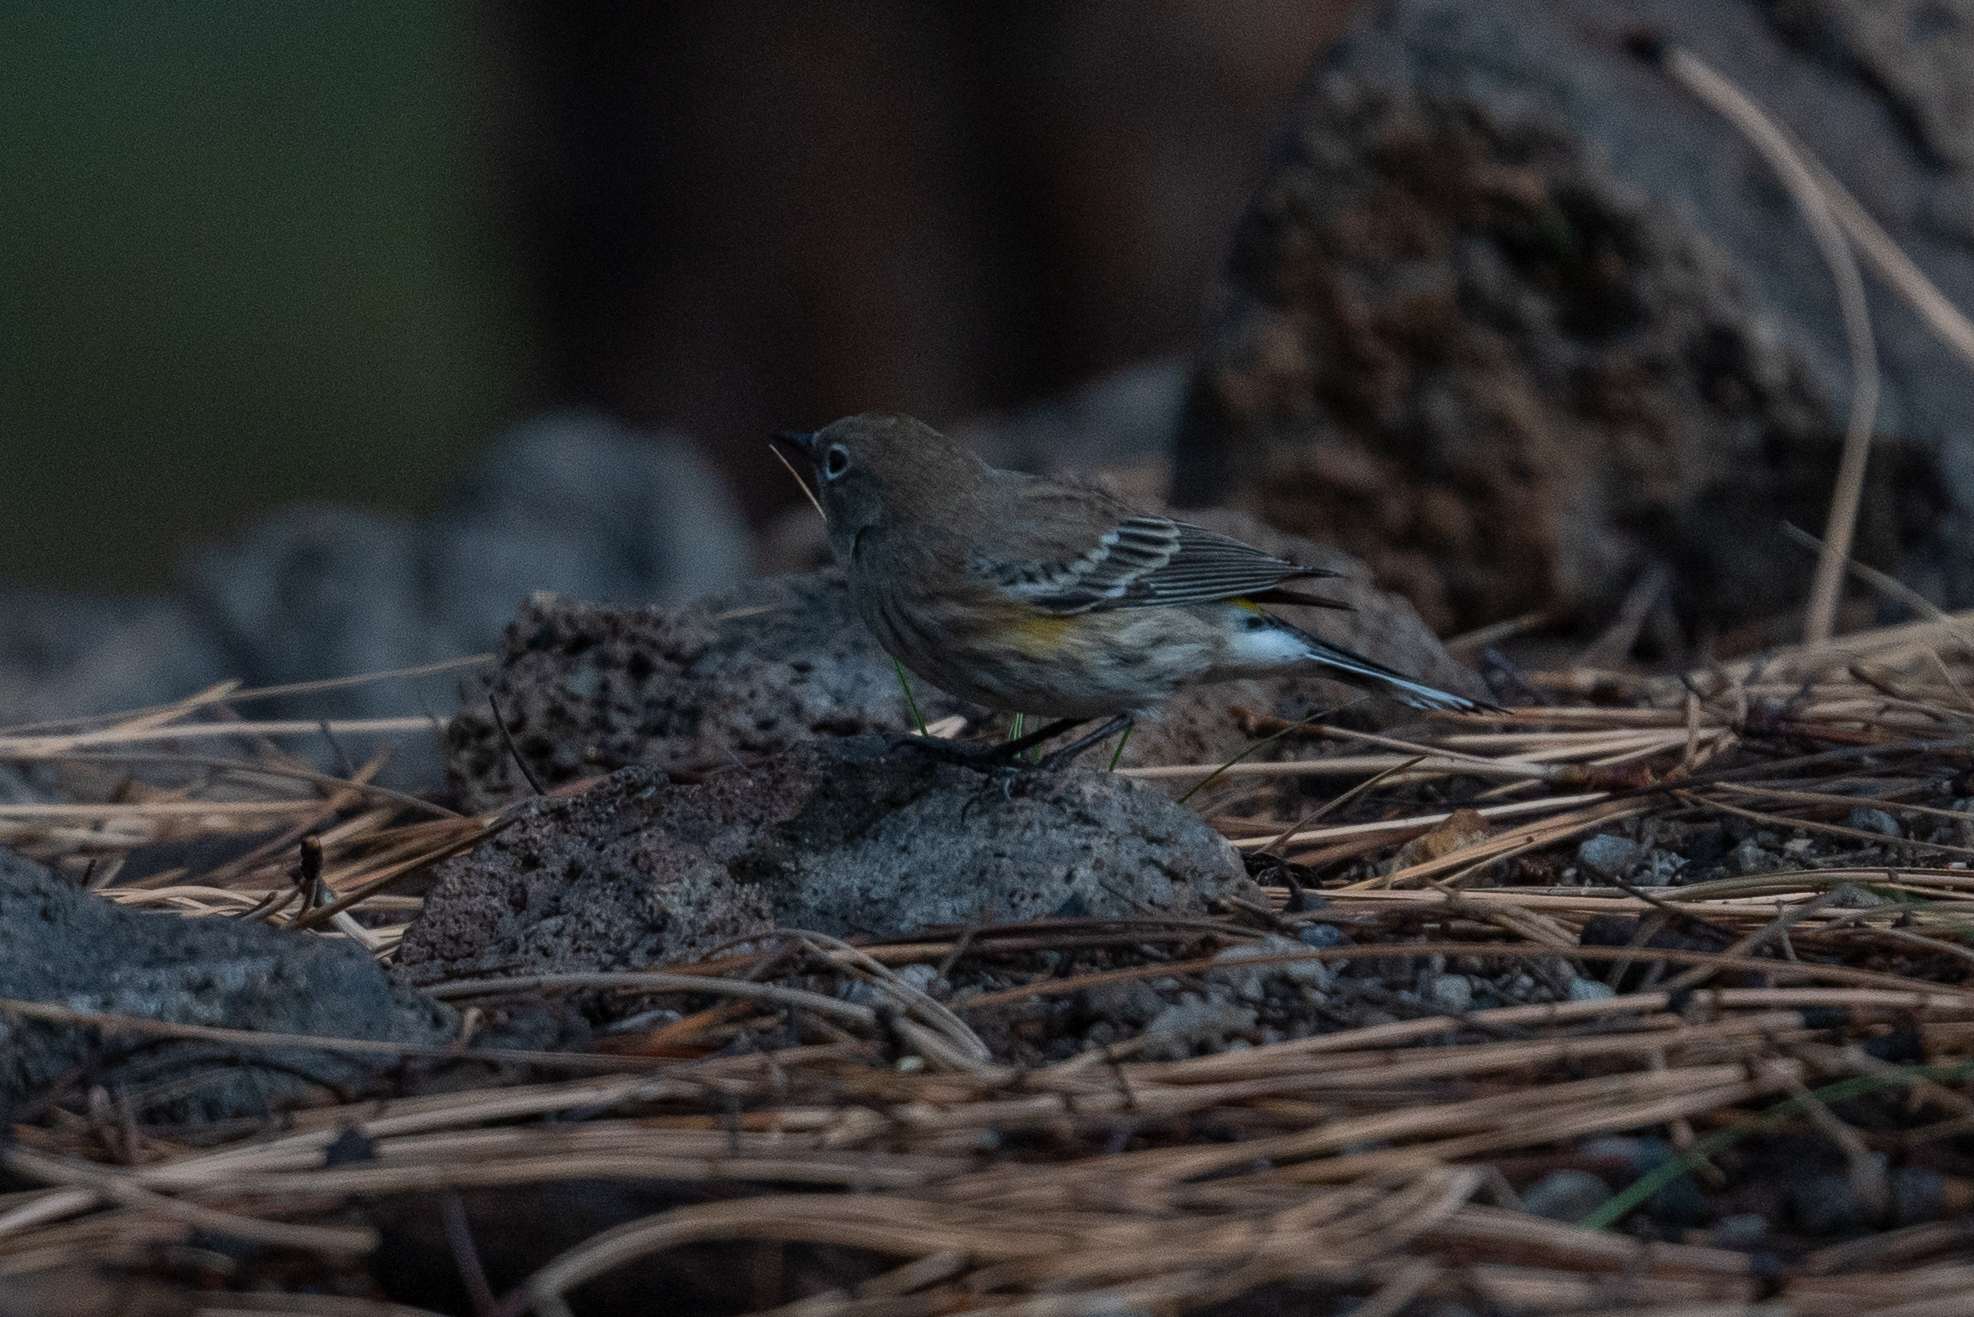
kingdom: Animalia
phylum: Chordata
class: Aves
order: Passeriformes
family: Parulidae
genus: Setophaga
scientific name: Setophaga coronata
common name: Myrtle warbler
